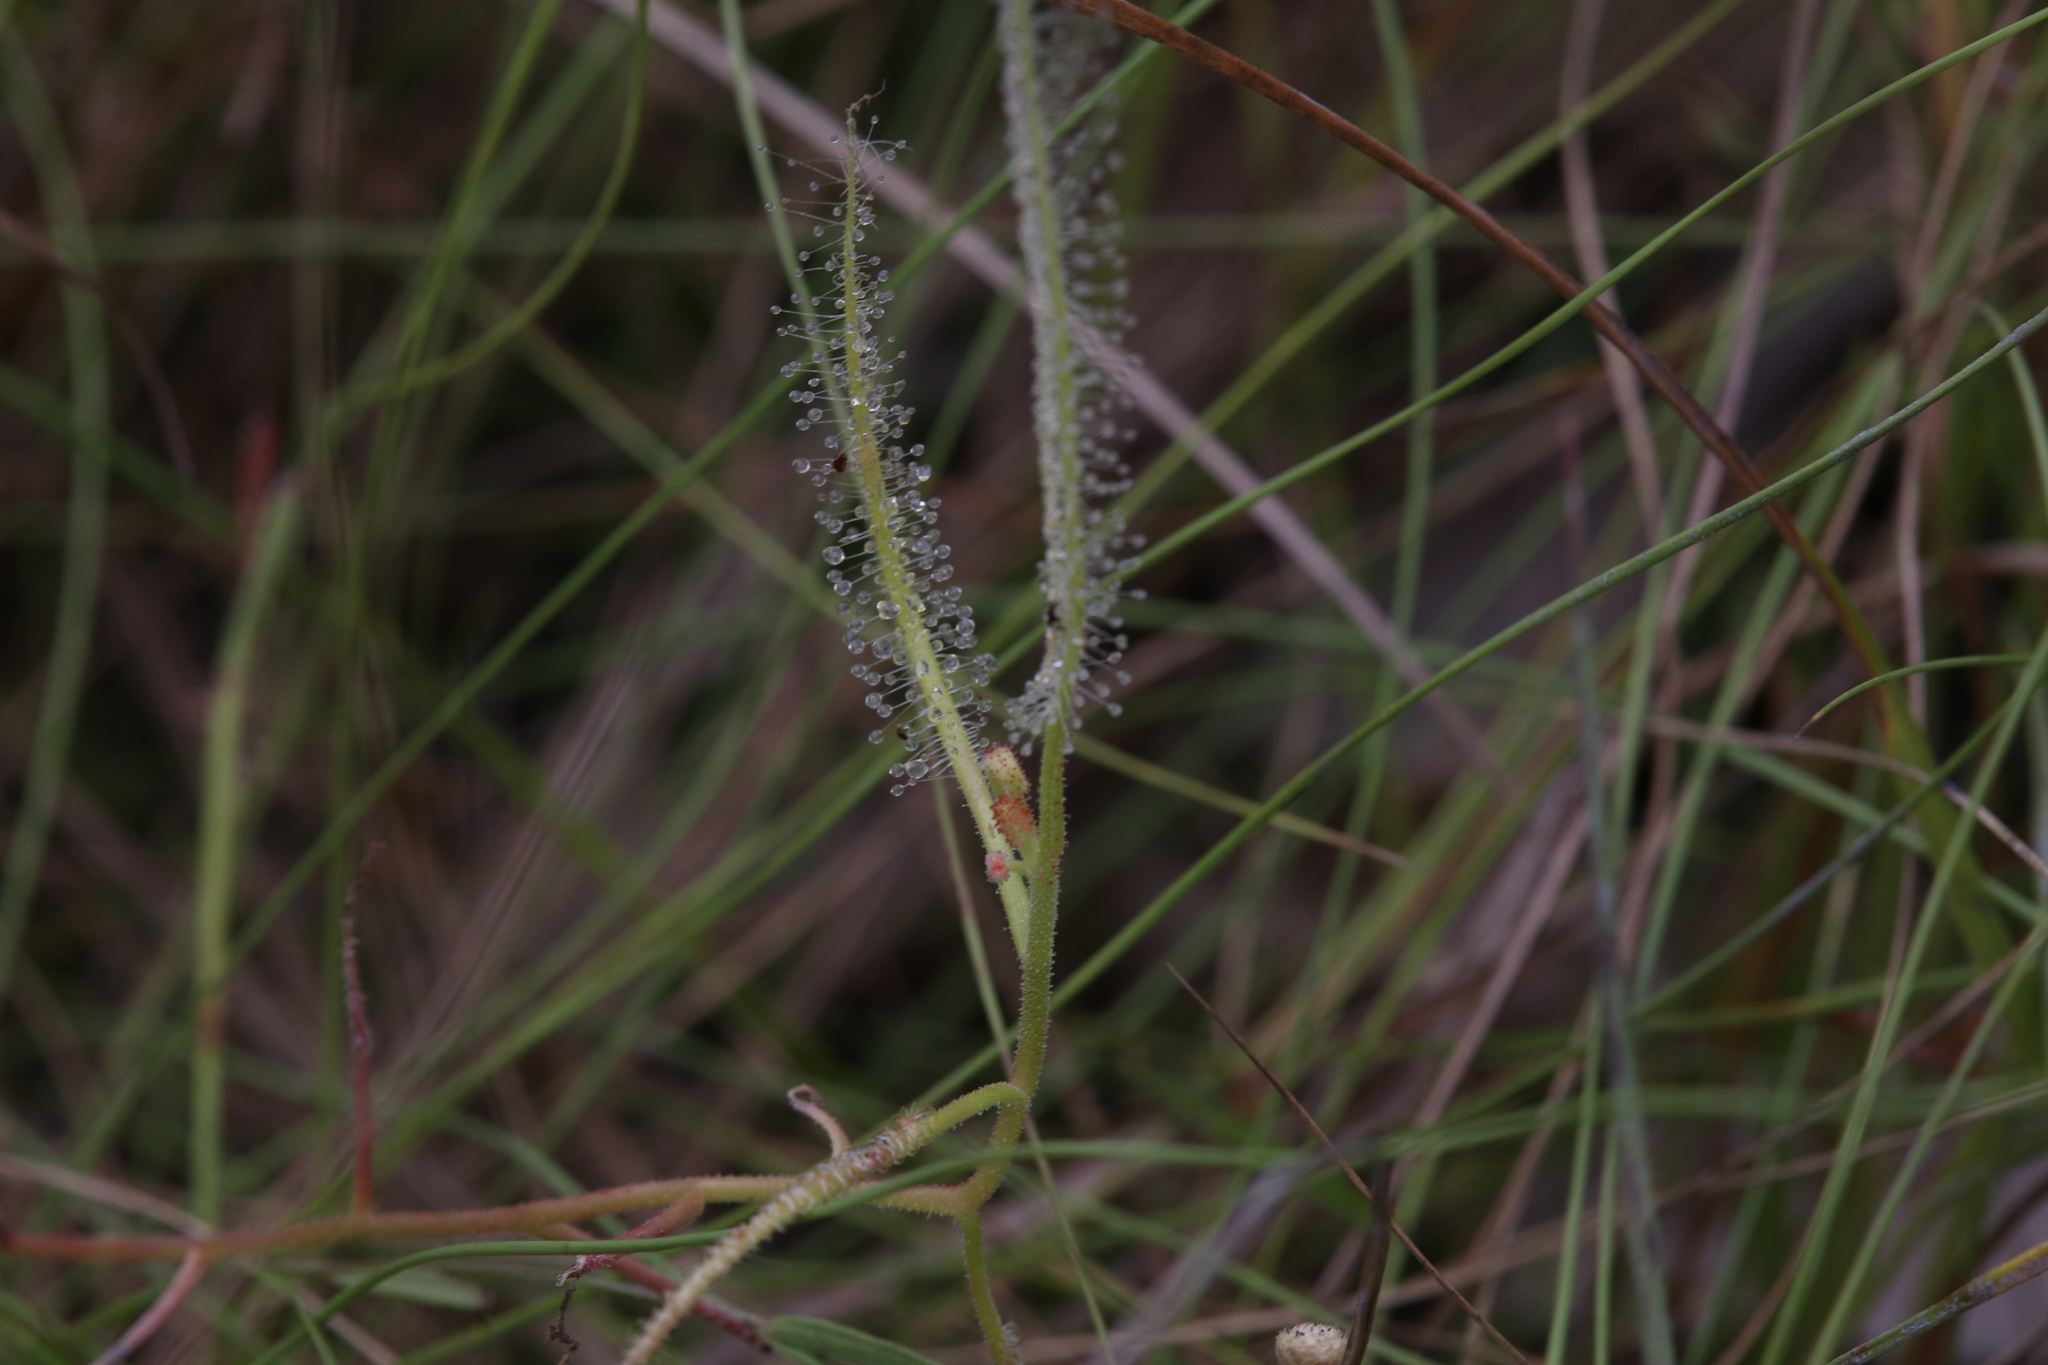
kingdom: Plantae
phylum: Tracheophyta
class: Magnoliopsida
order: Caryophyllales
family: Droseraceae
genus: Drosera
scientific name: Drosera indica
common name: Indian sundew
